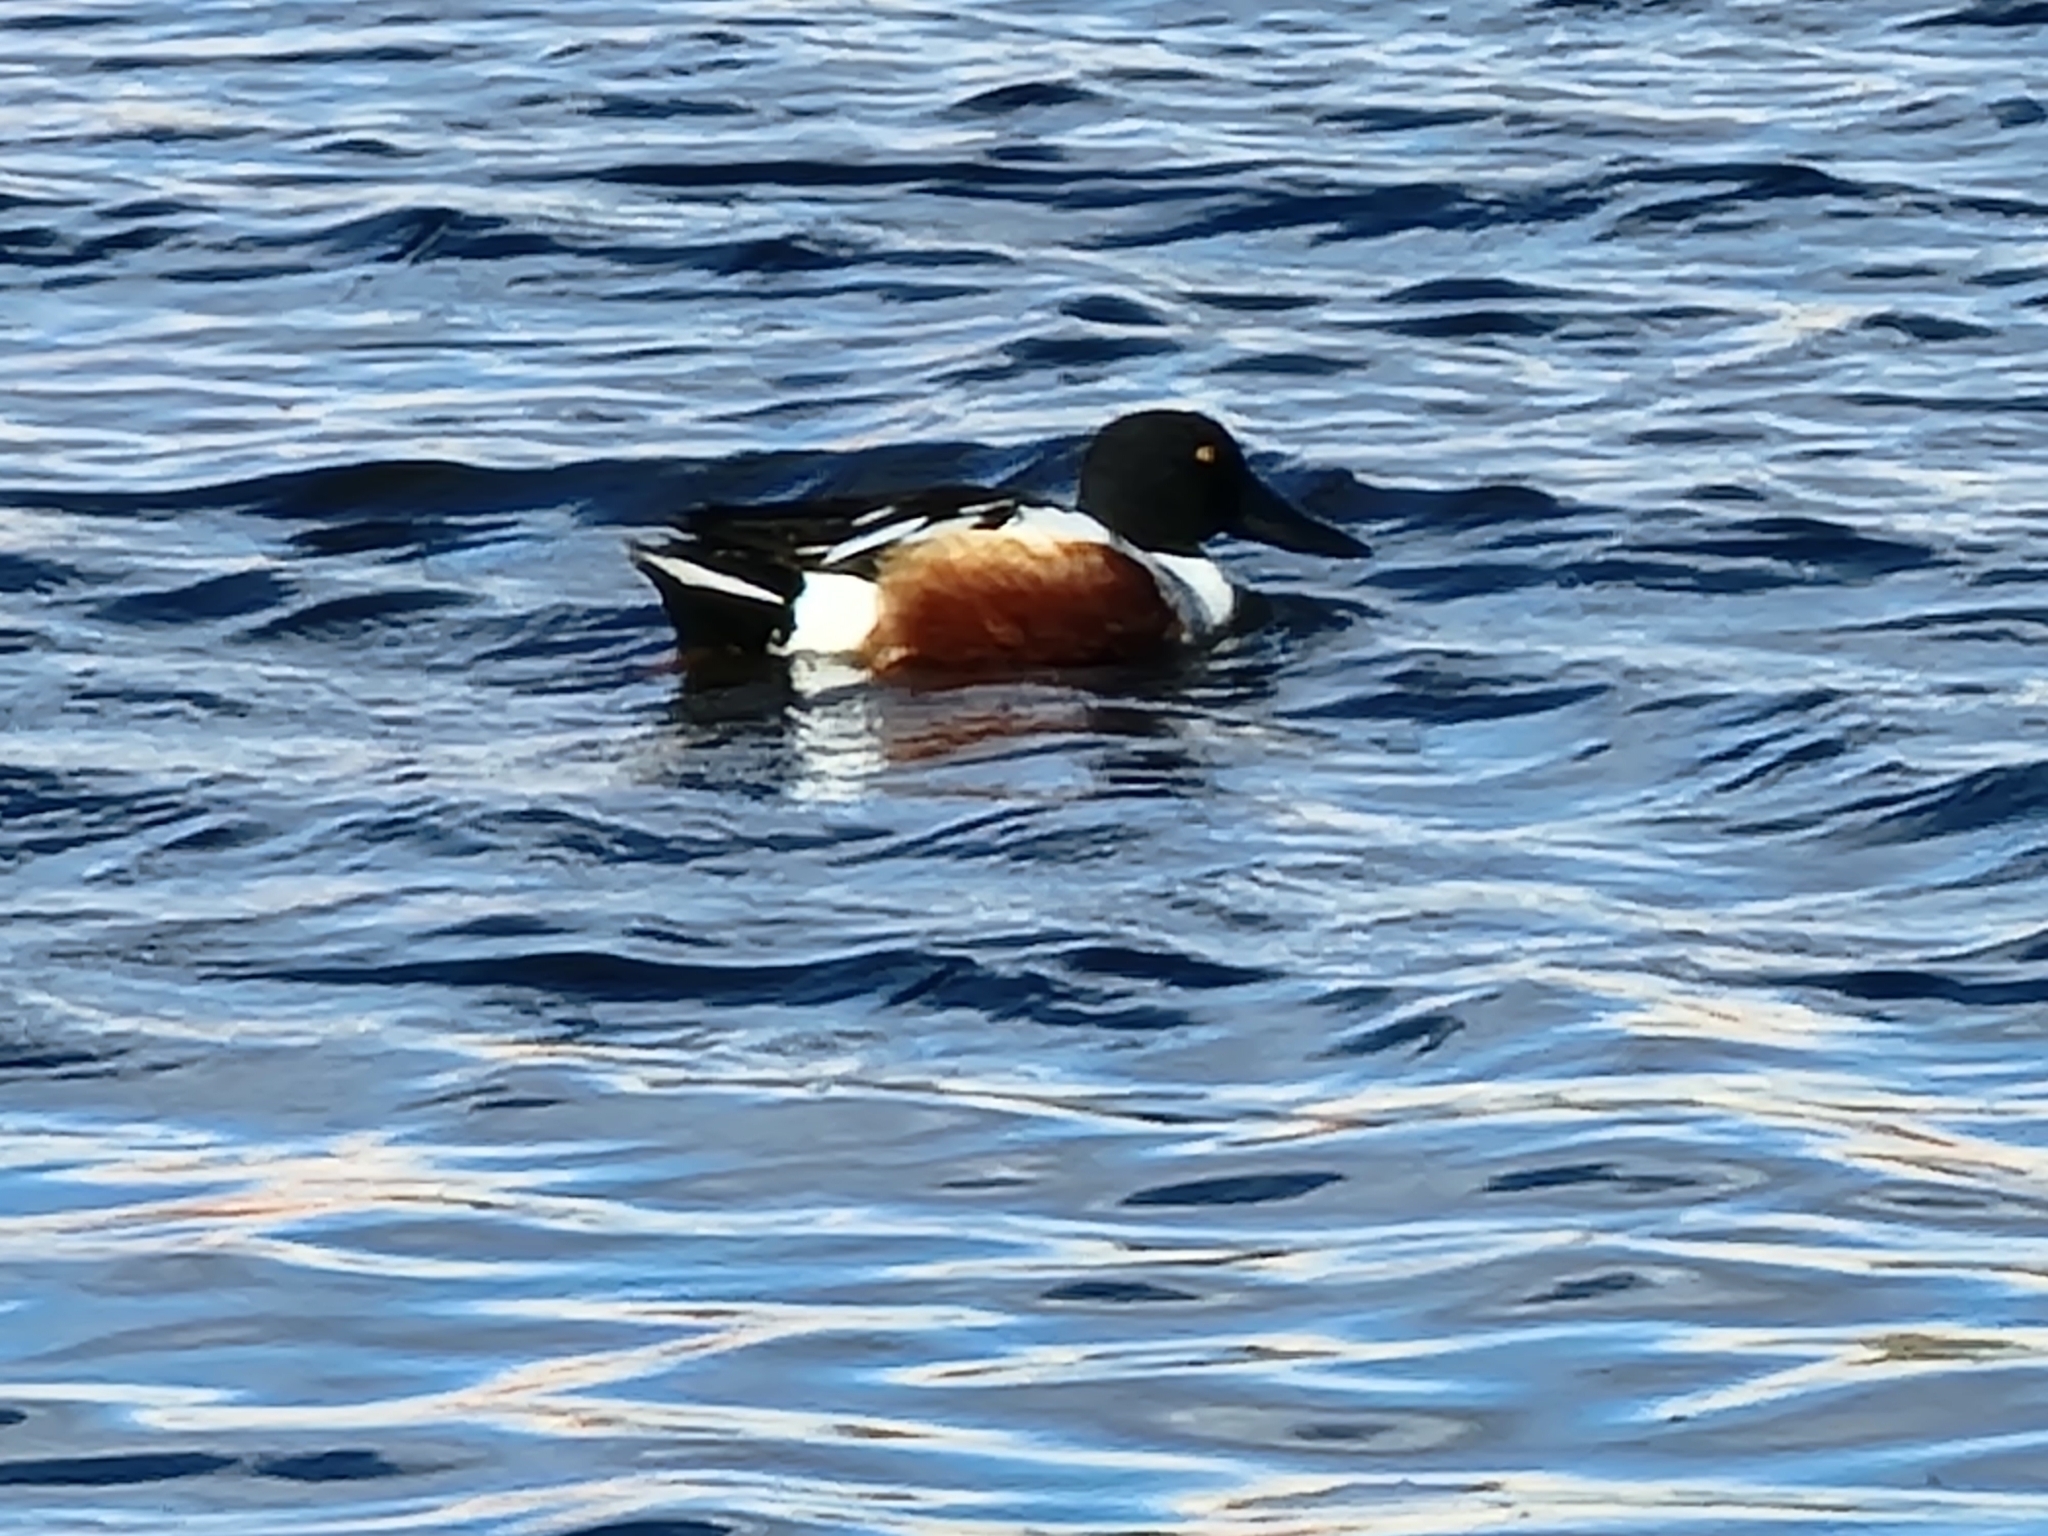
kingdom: Animalia
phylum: Chordata
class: Aves
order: Anseriformes
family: Anatidae
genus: Spatula
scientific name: Spatula clypeata
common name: Northern shoveler
